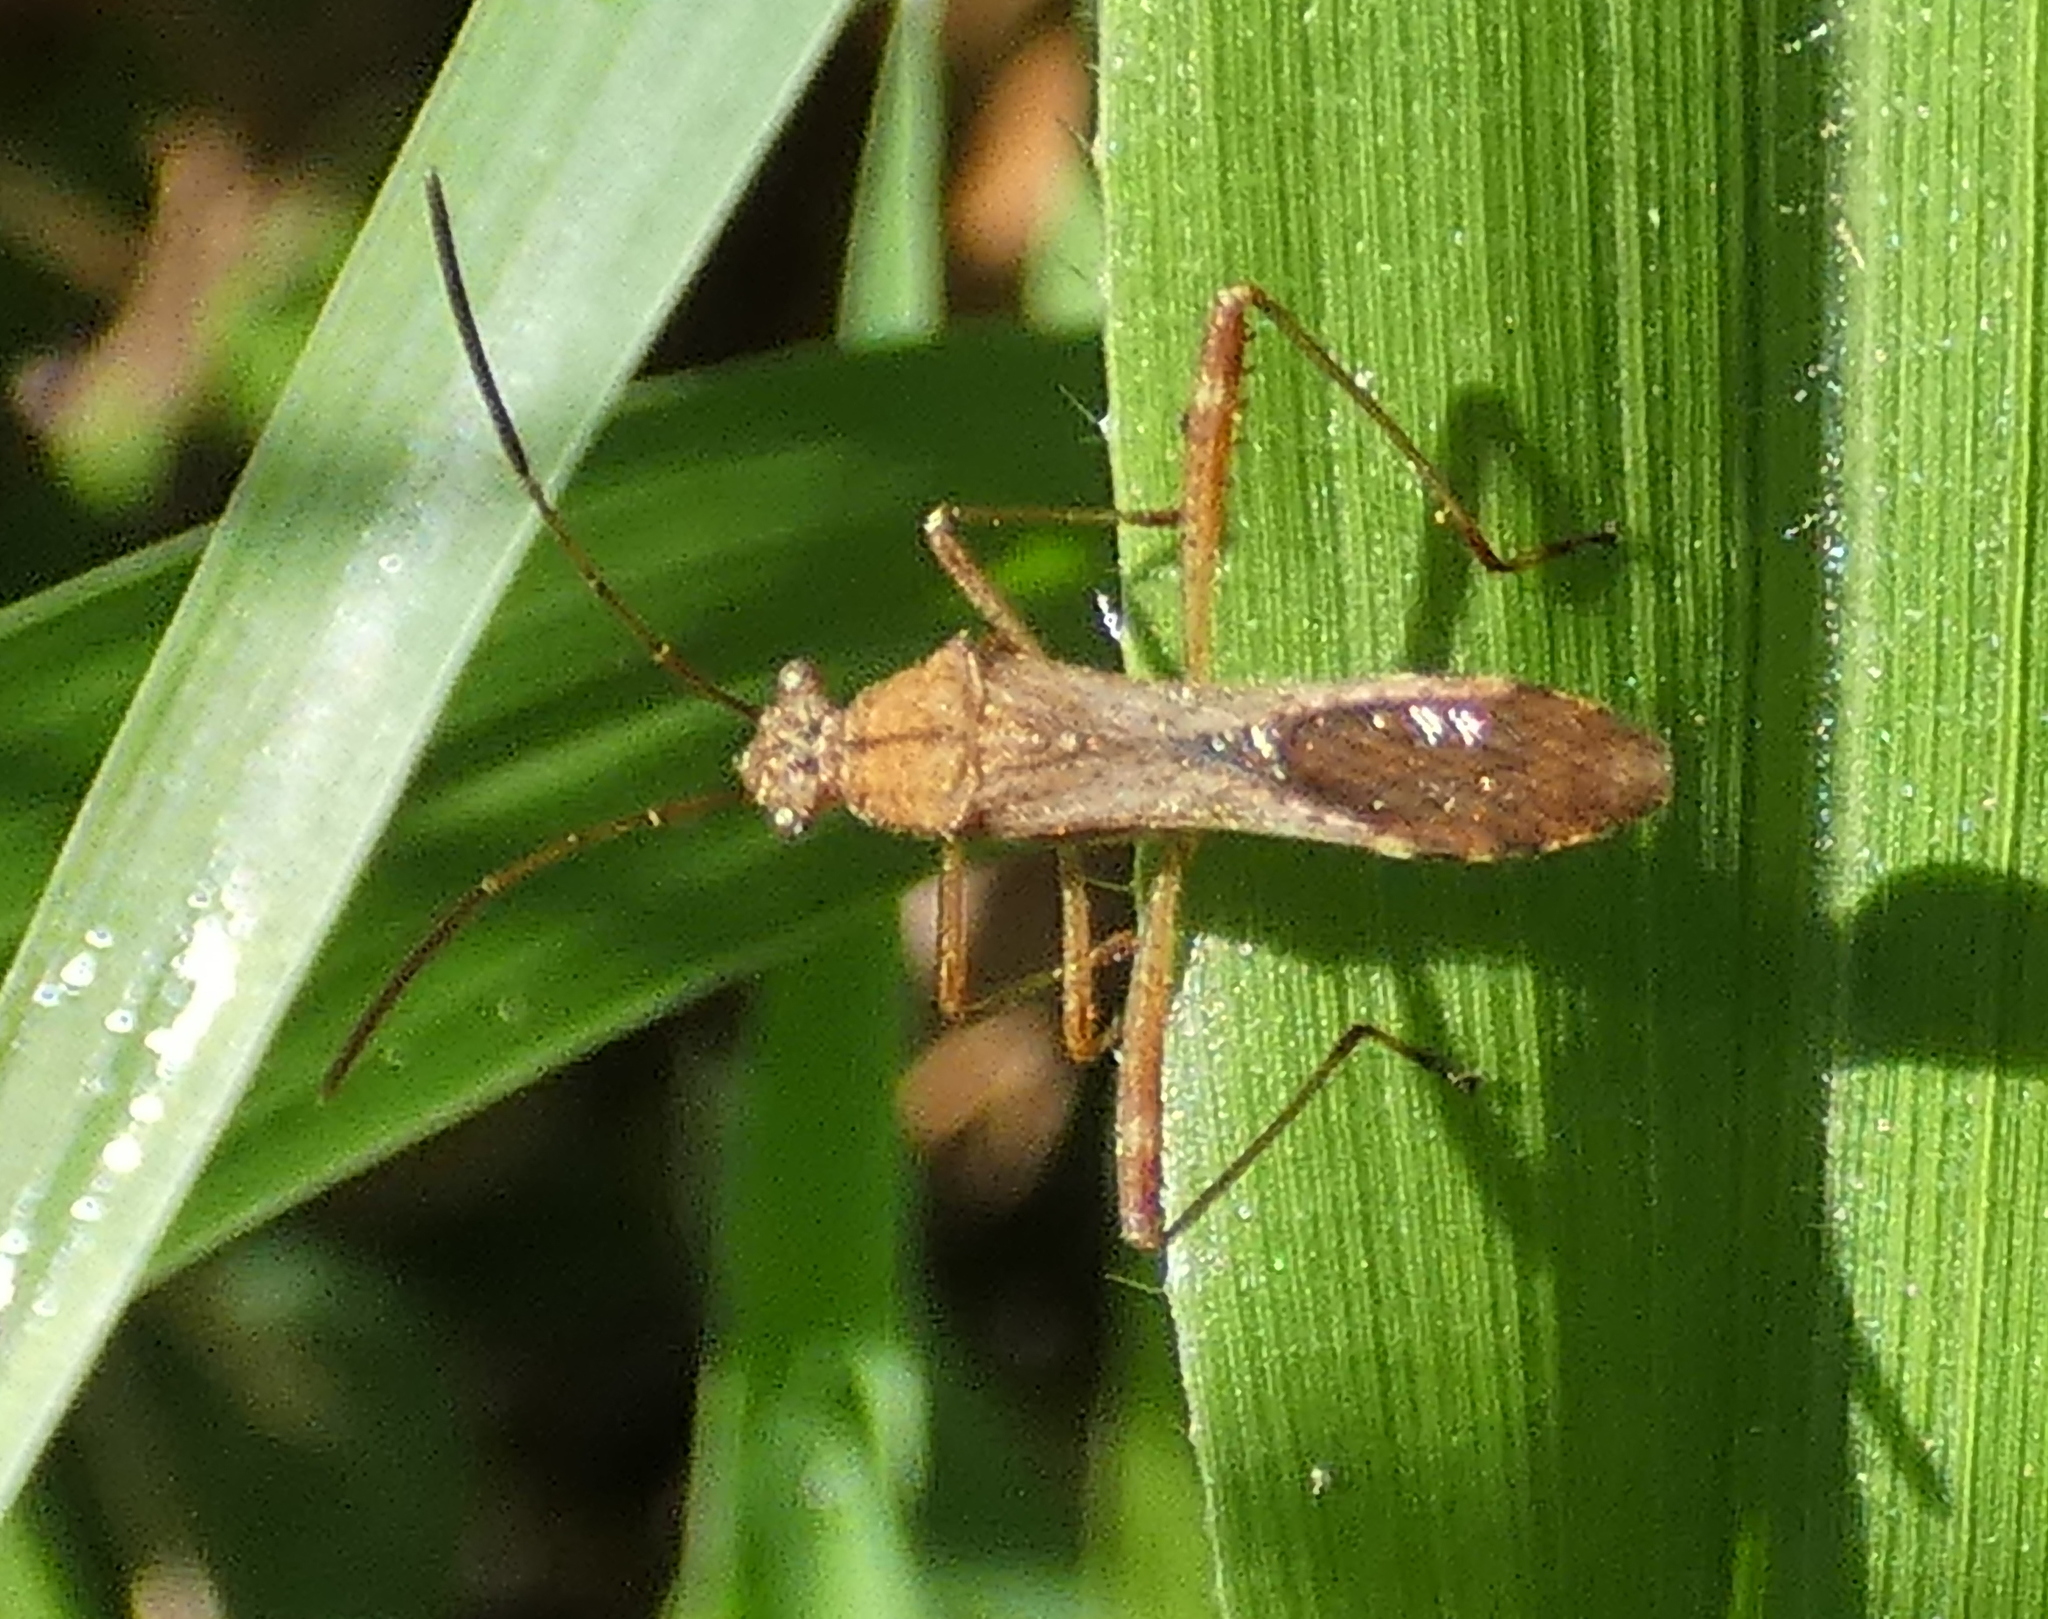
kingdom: Animalia
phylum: Arthropoda
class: Insecta
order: Hemiptera
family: Alydidae
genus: Neomegalotomus
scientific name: Neomegalotomus parvus
